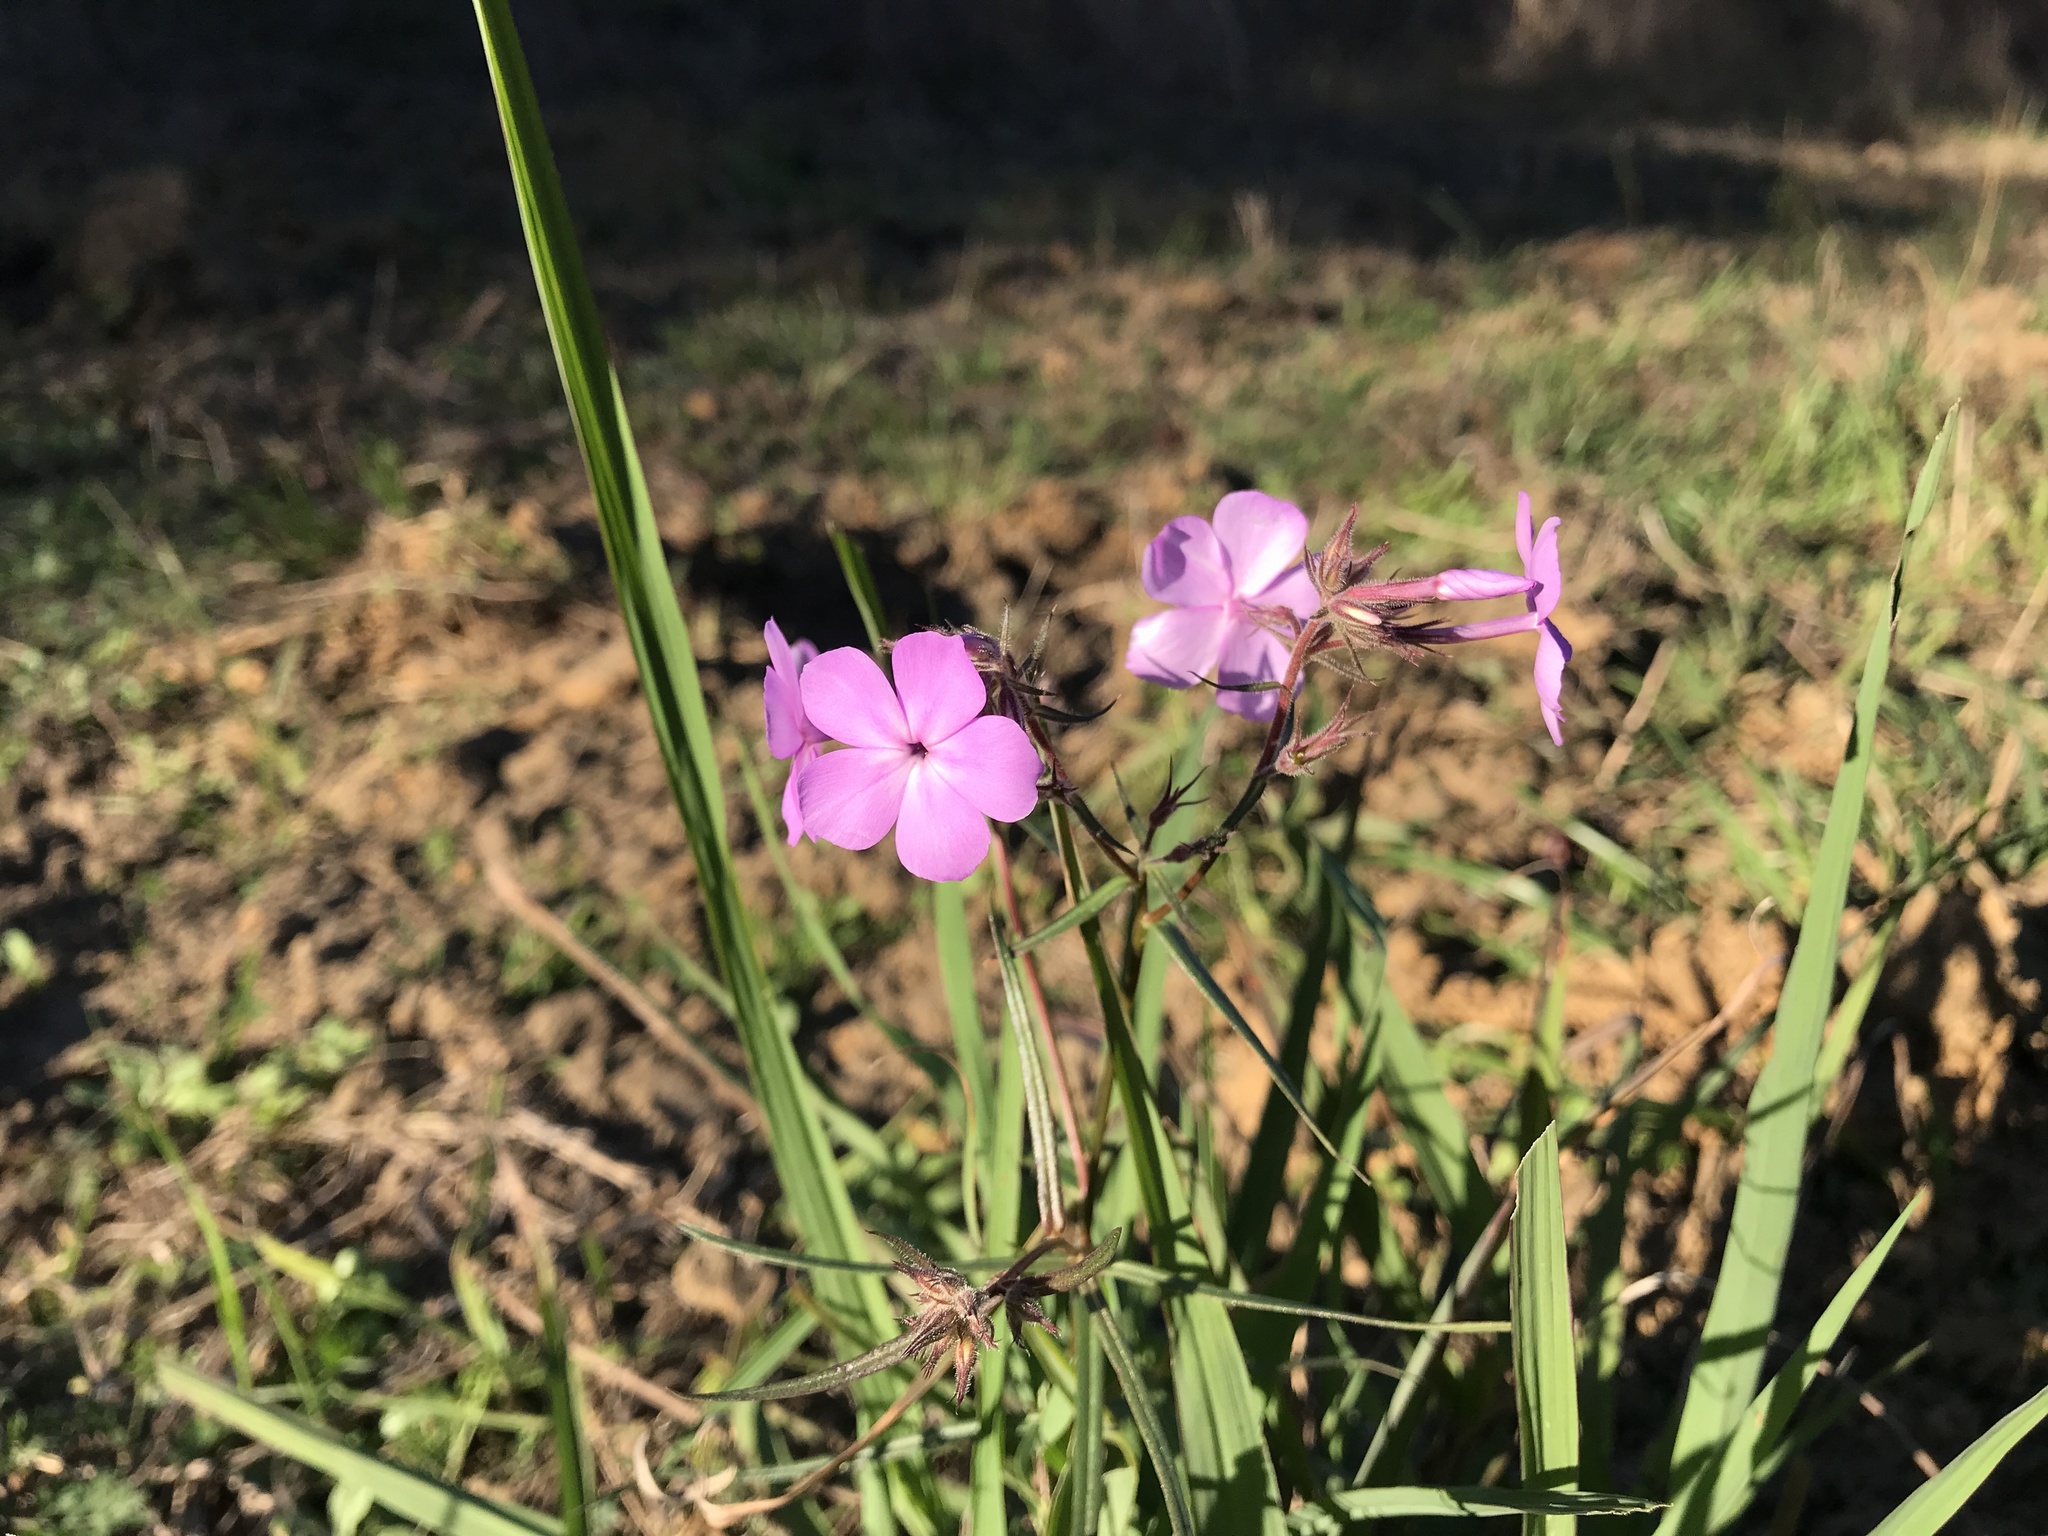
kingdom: Plantae
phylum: Tracheophyta
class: Magnoliopsida
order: Ericales
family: Polemoniaceae
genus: Phlox
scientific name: Phlox pilosa
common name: Prairie phlox
